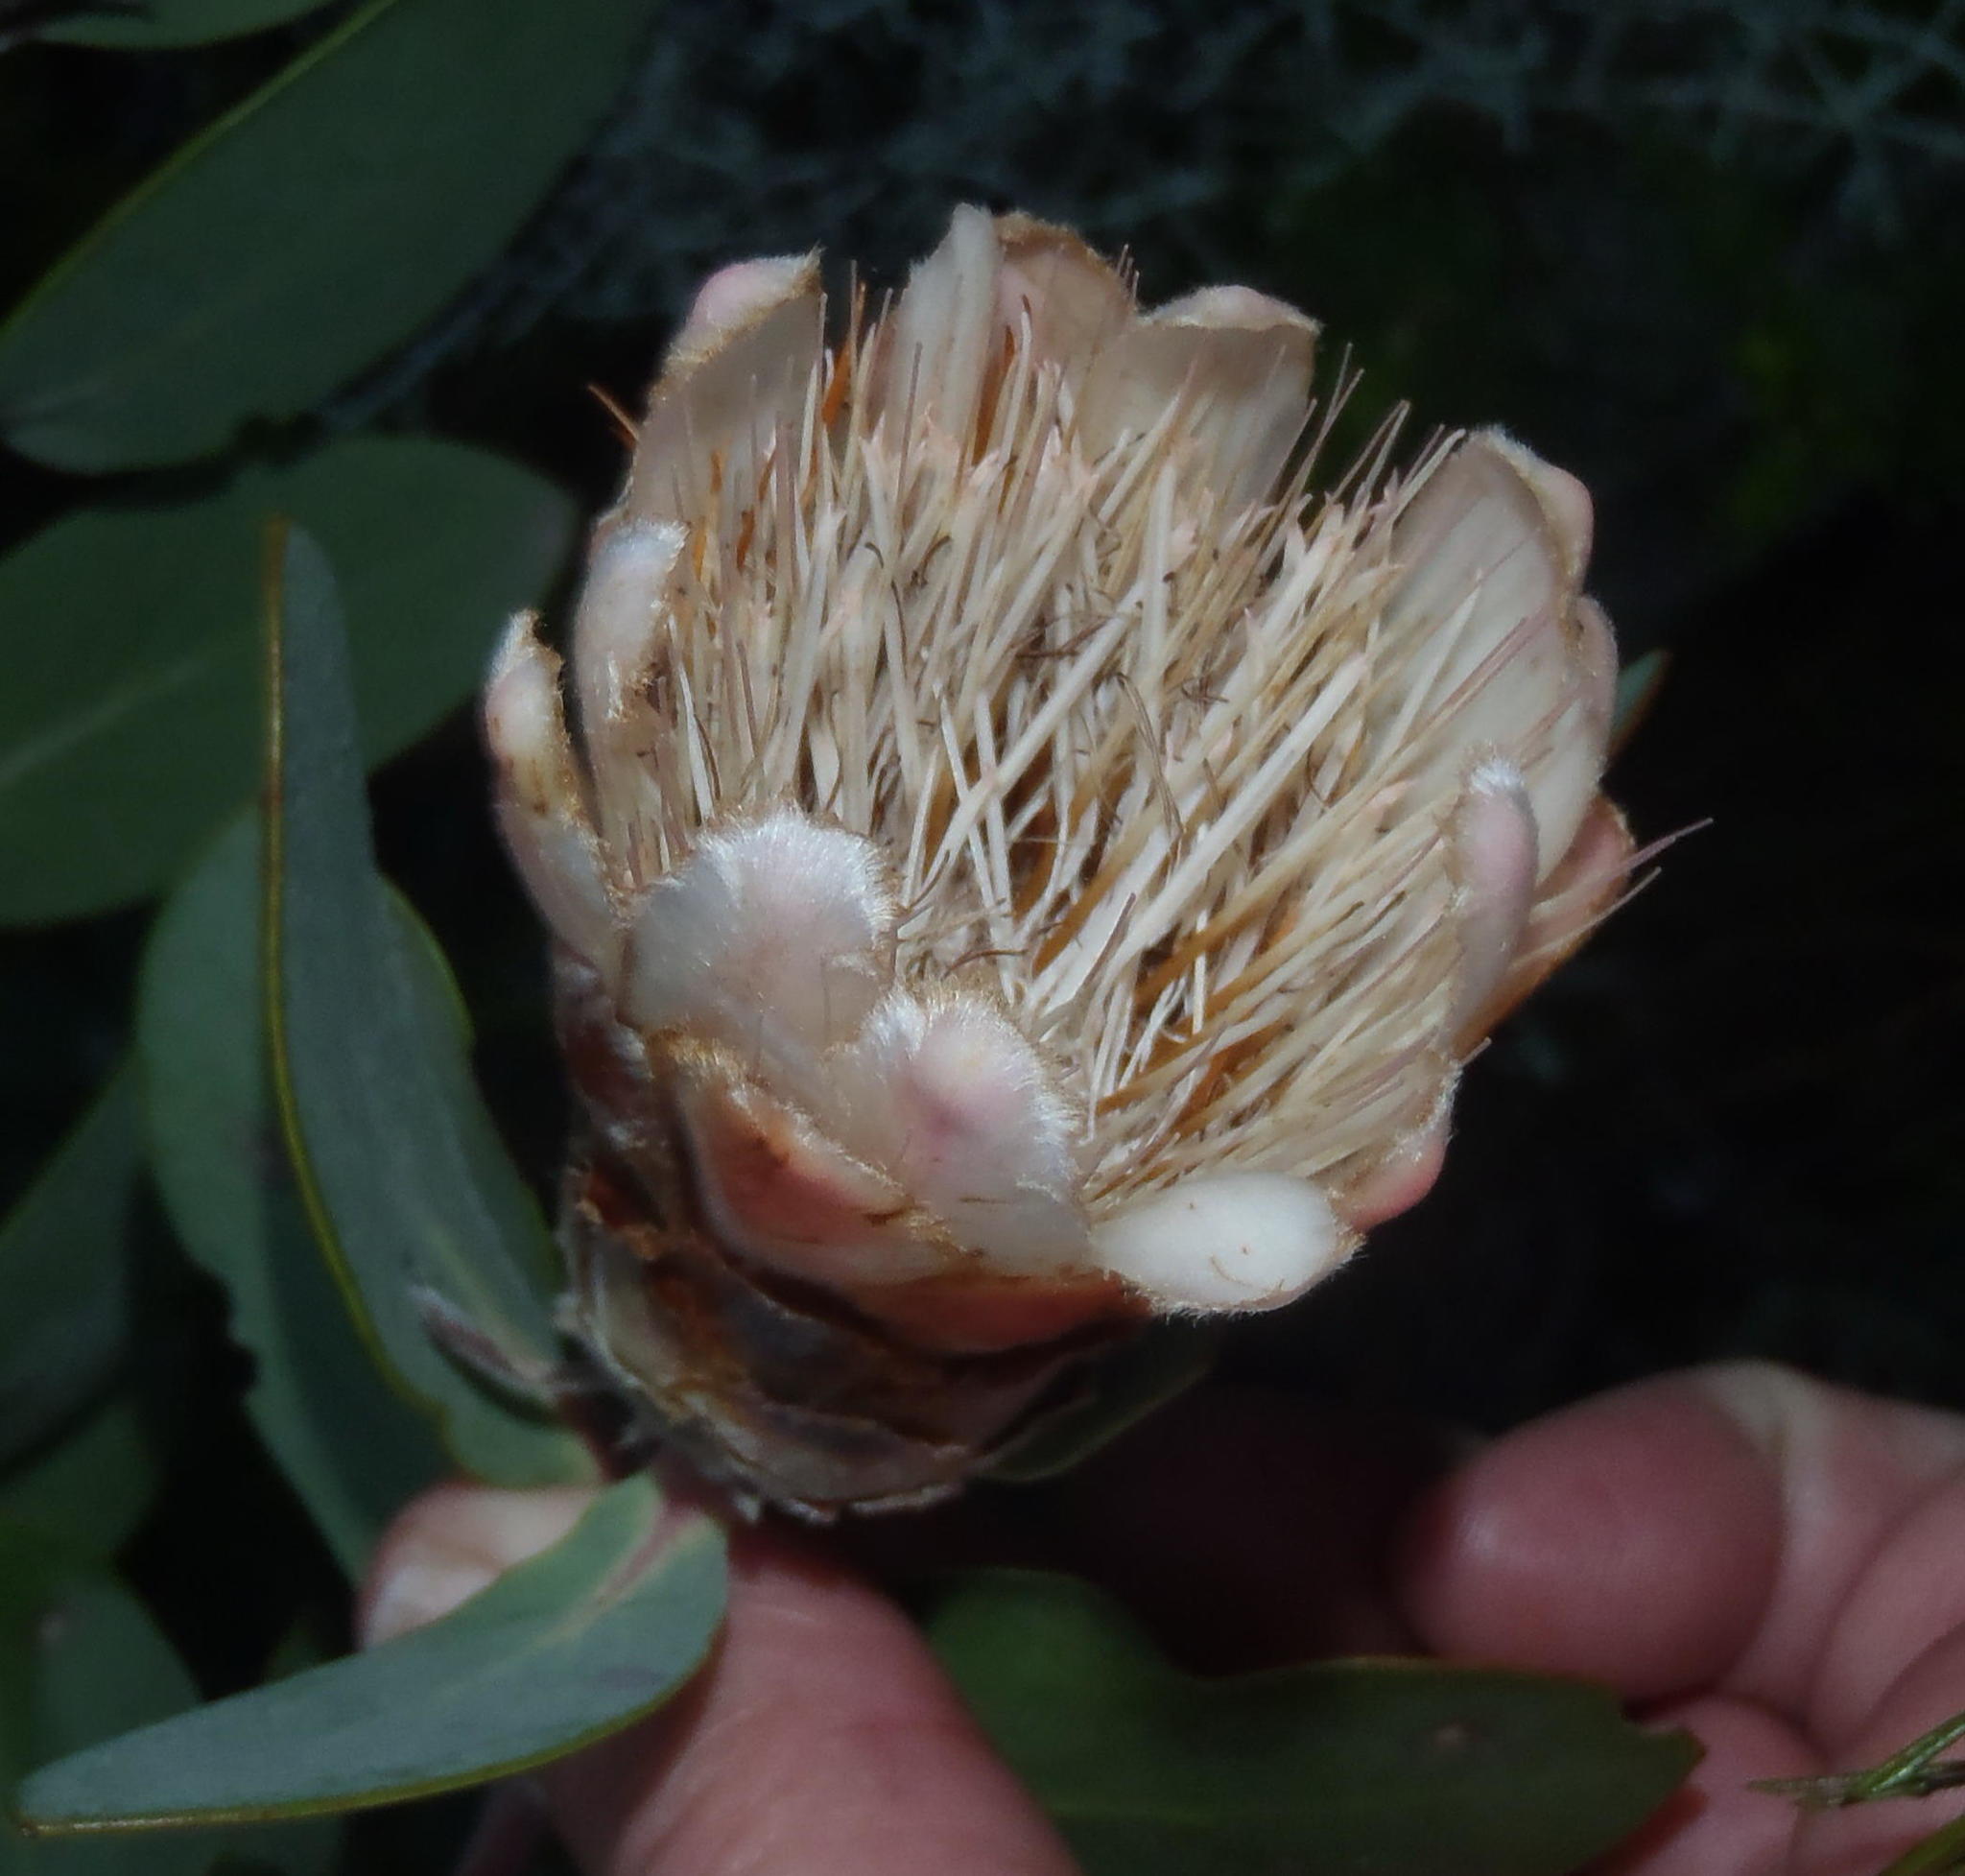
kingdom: Plantae
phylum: Tracheophyta
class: Magnoliopsida
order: Proteales
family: Proteaceae
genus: Protea
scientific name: Protea punctata
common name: Water sugarbush
